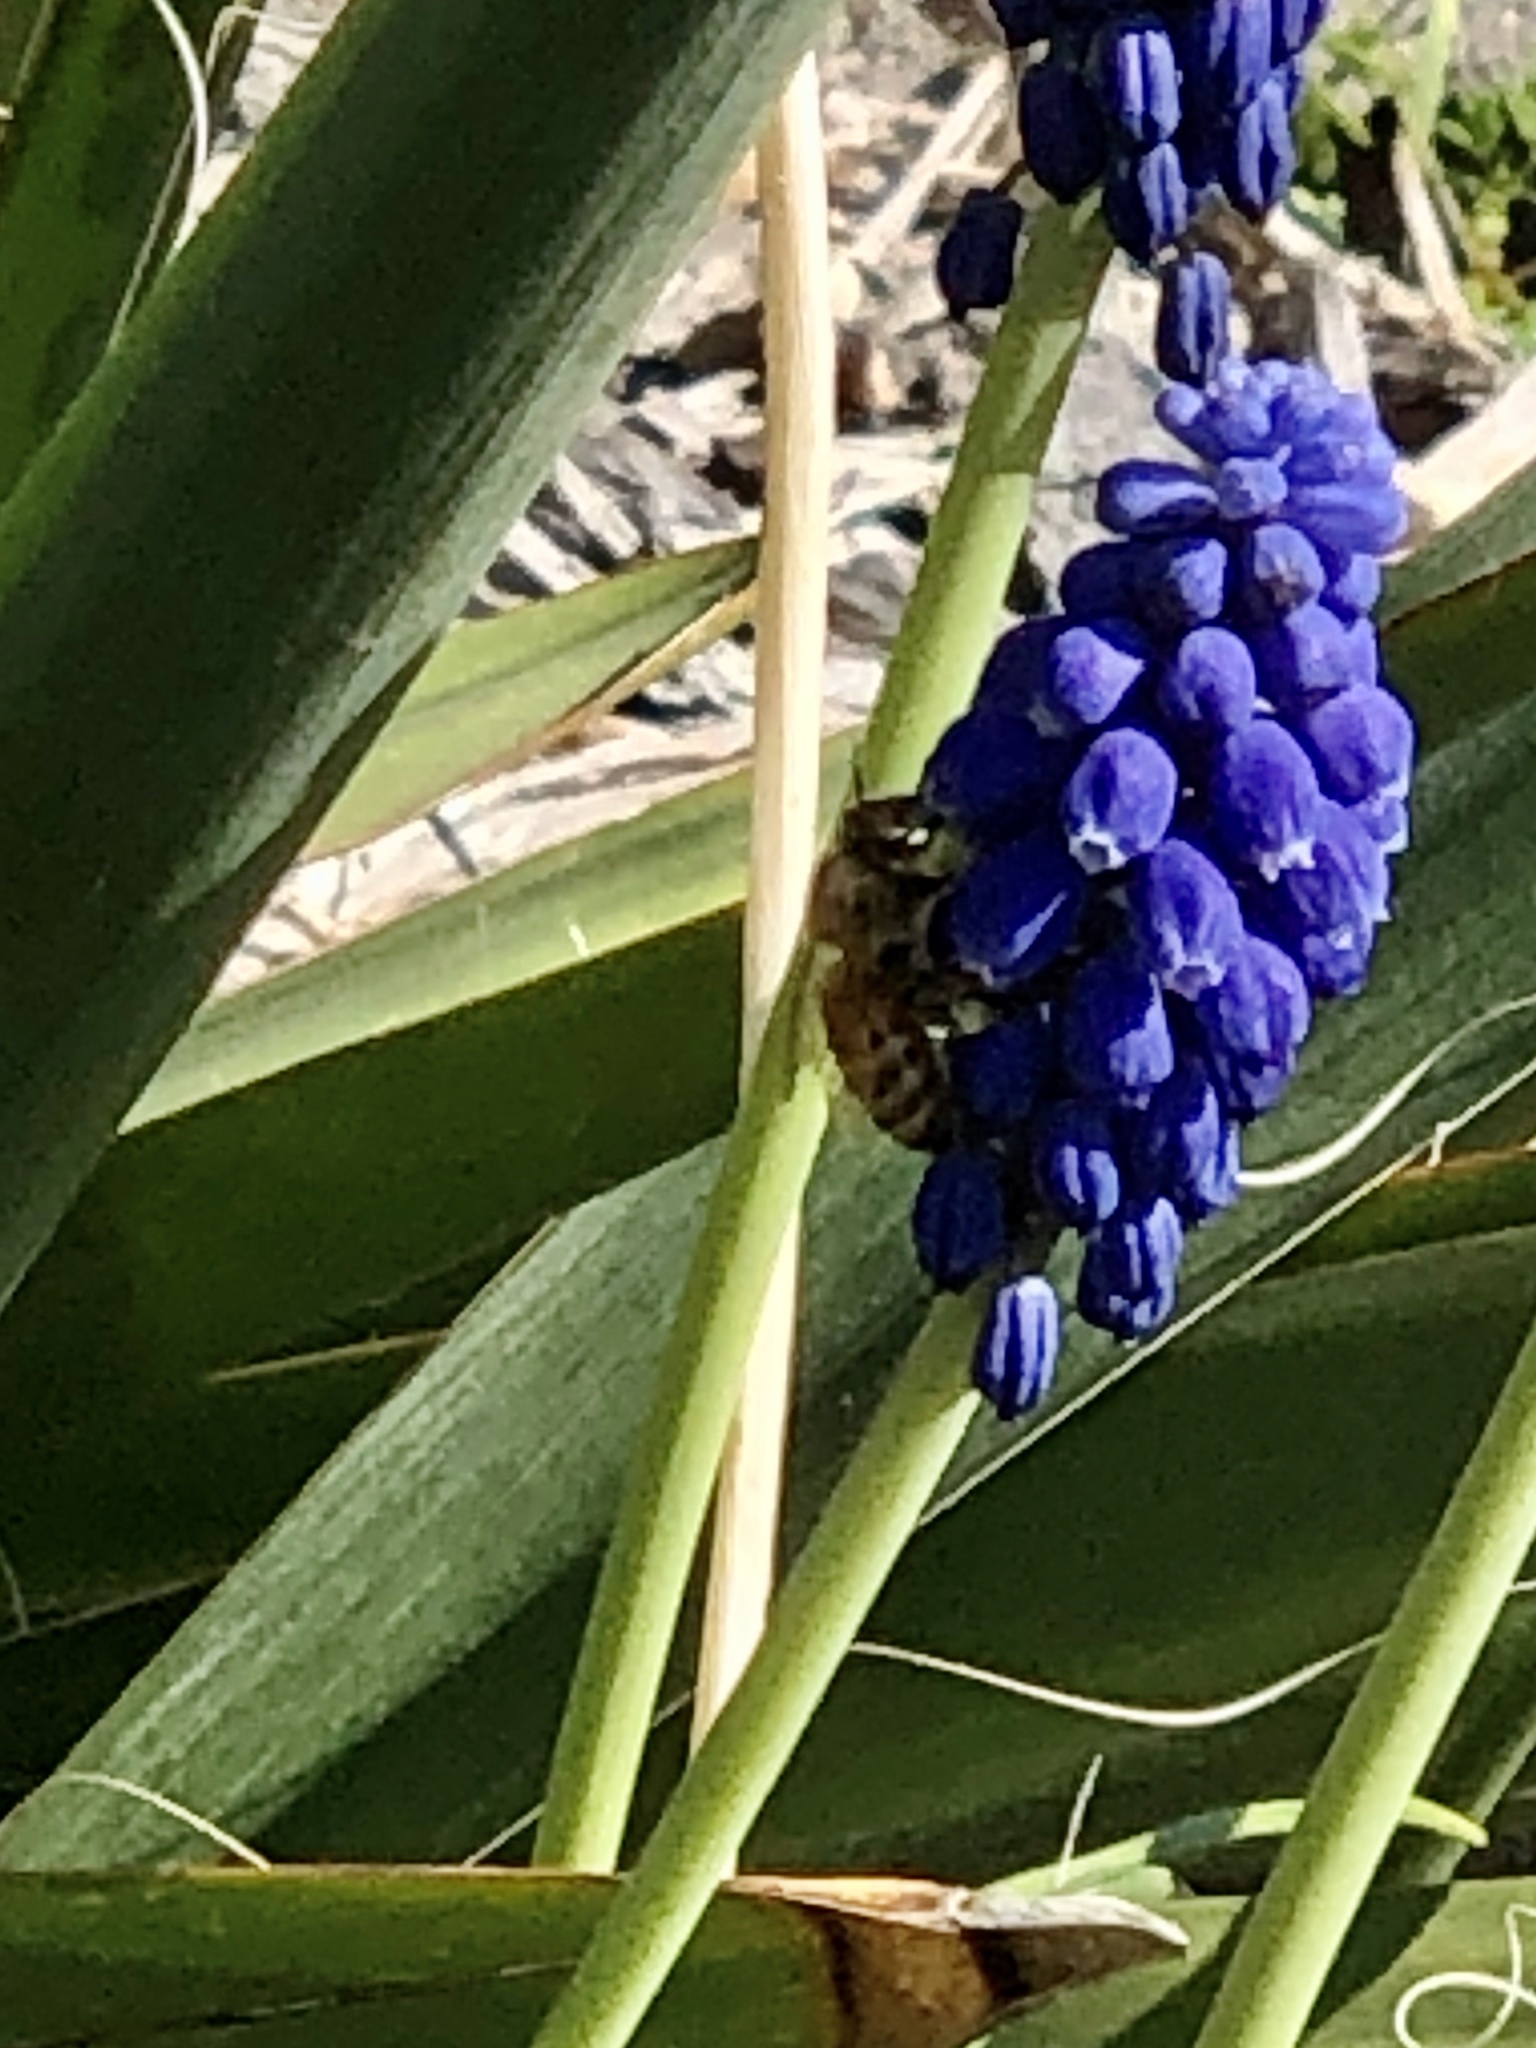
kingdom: Animalia
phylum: Arthropoda
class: Insecta
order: Hymenoptera
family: Apidae
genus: Apis
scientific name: Apis mellifera
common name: Honey bee
